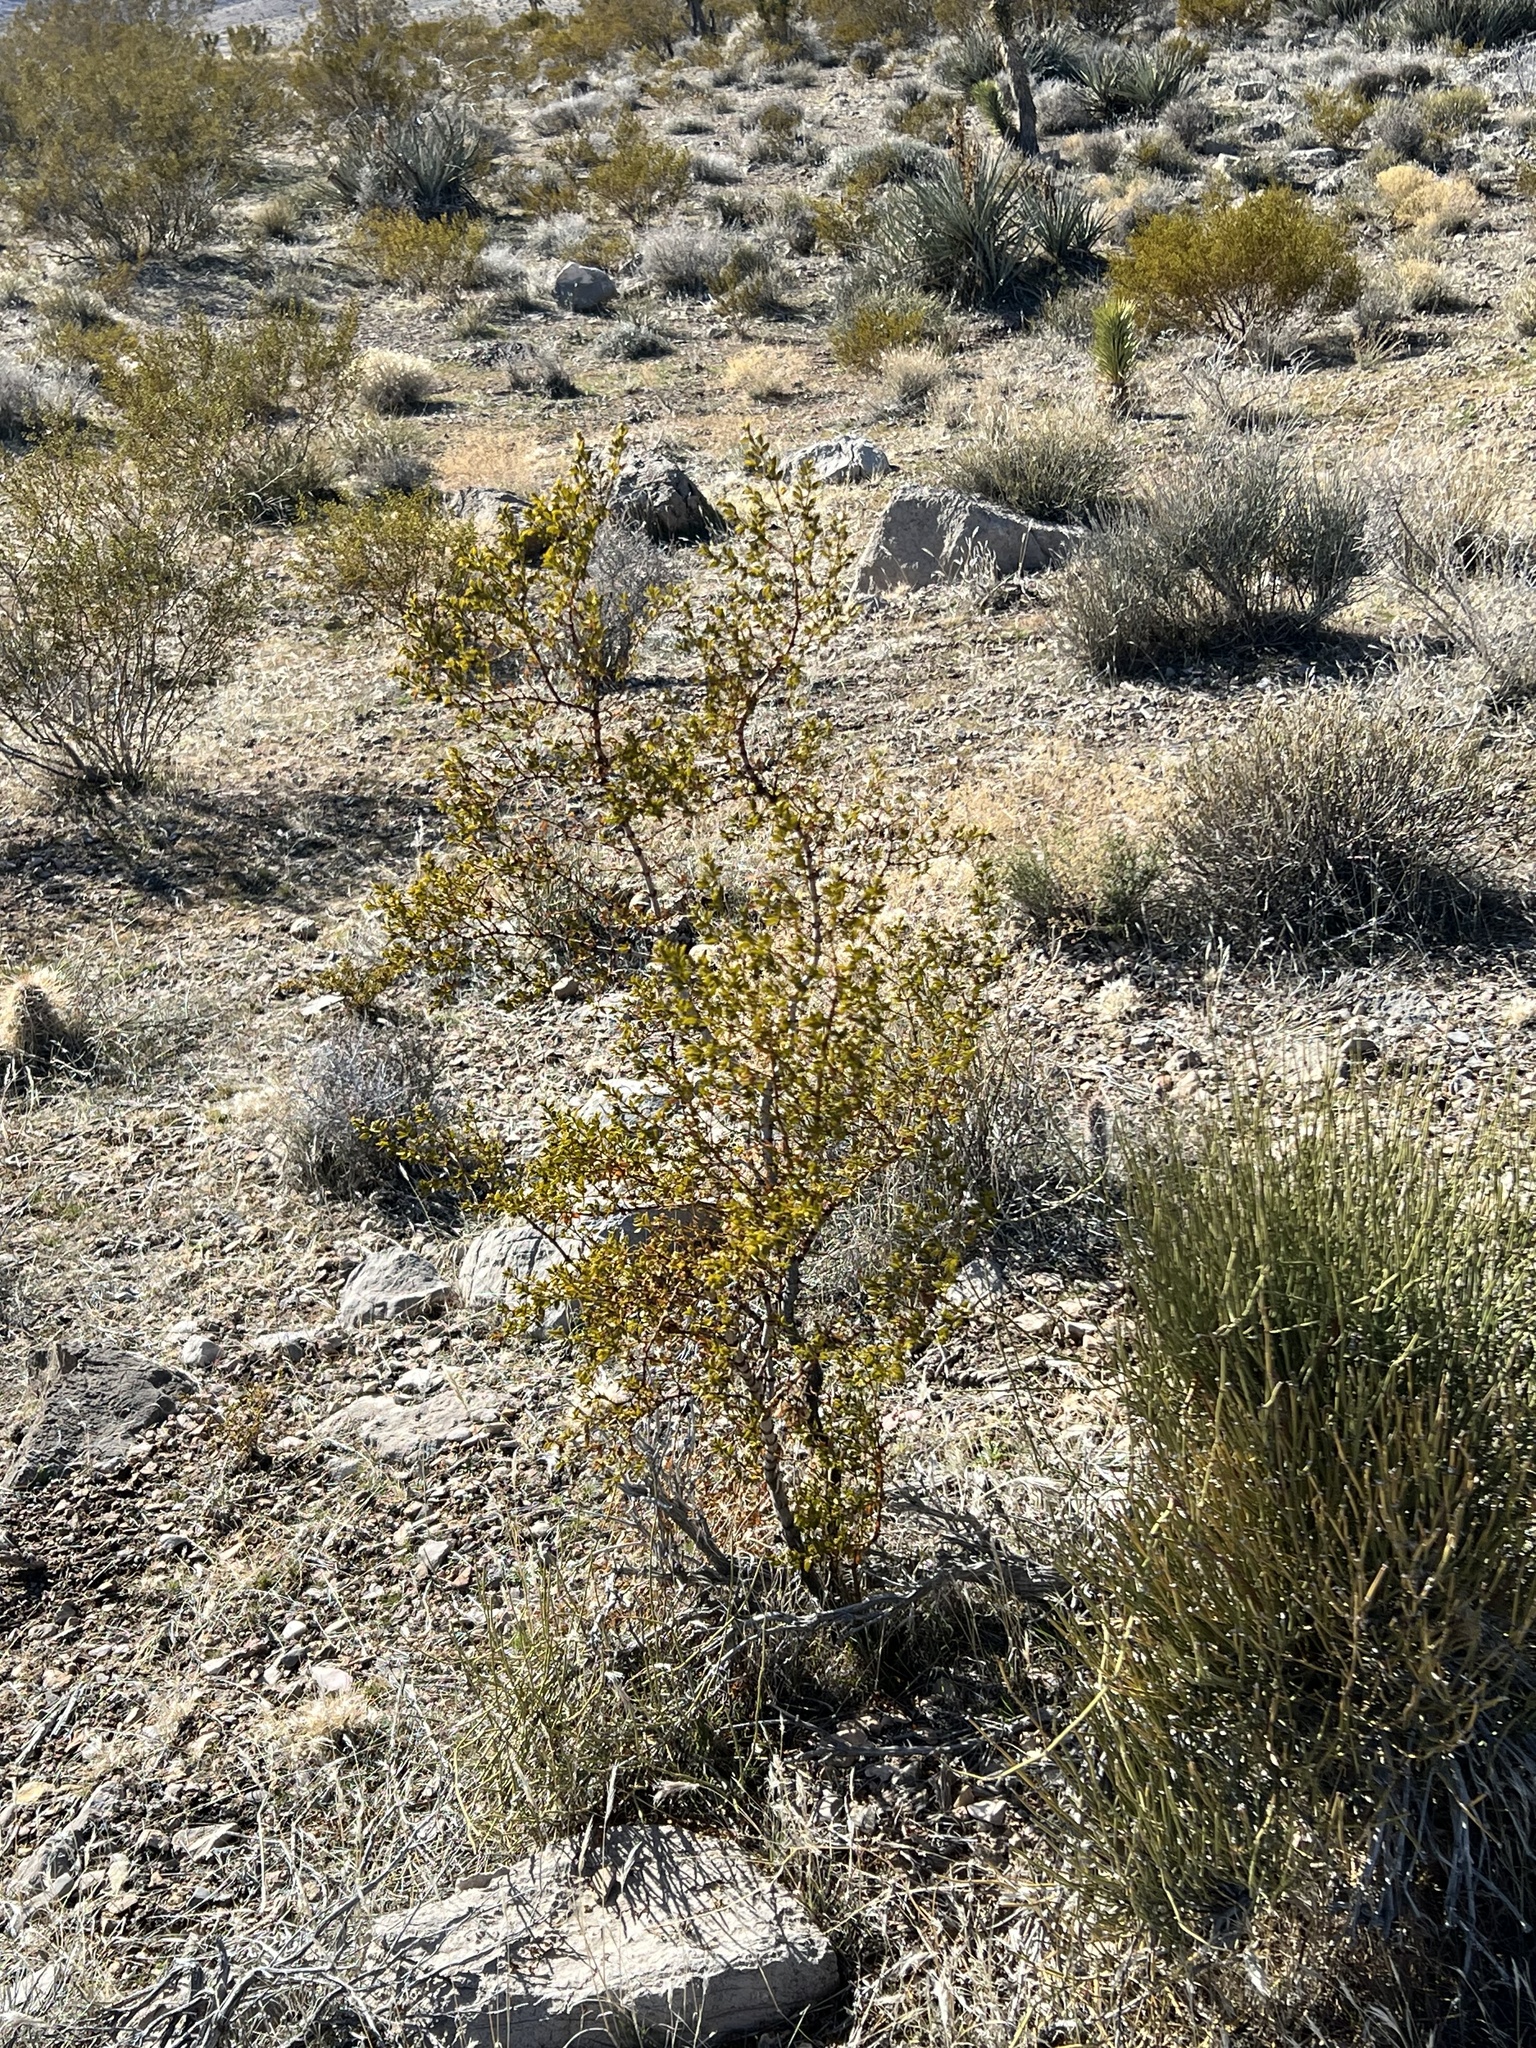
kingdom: Plantae
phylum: Tracheophyta
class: Magnoliopsida
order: Zygophyllales
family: Zygophyllaceae
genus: Larrea
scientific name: Larrea tridentata
